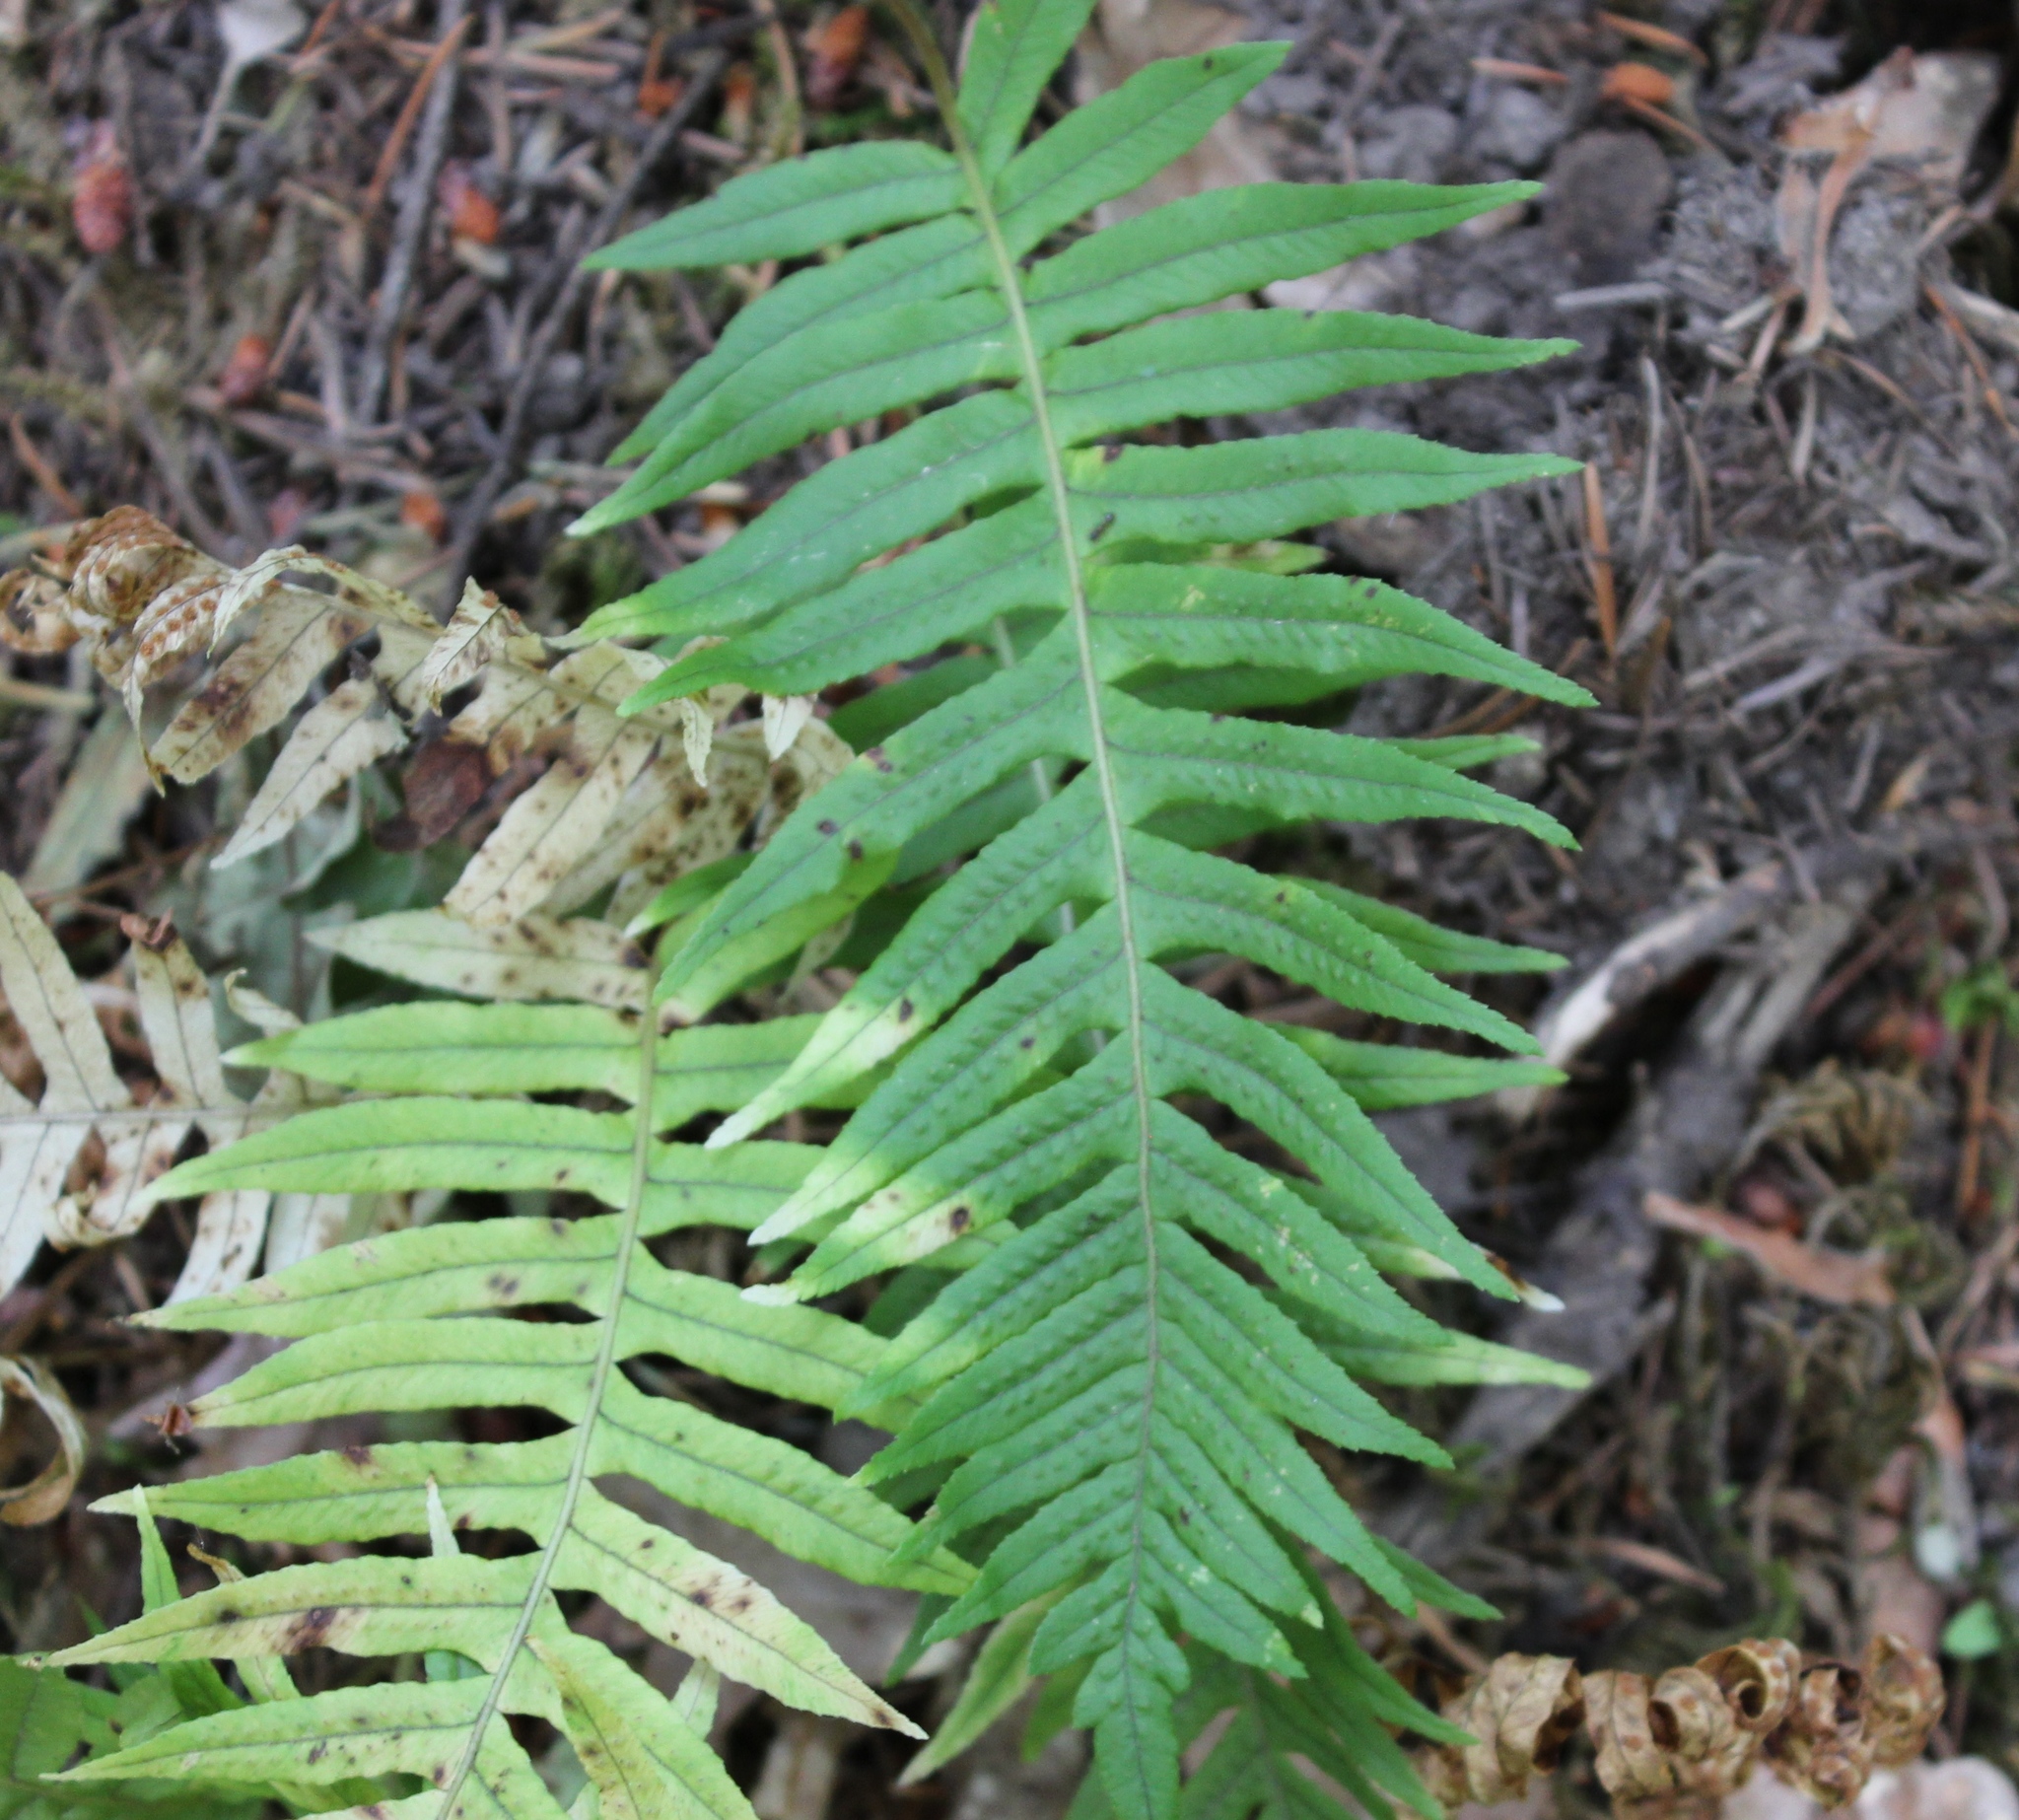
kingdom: Plantae
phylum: Tracheophyta
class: Polypodiopsida
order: Polypodiales
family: Polypodiaceae
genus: Polypodium
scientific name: Polypodium glycyrrhiza
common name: Licorice fern
